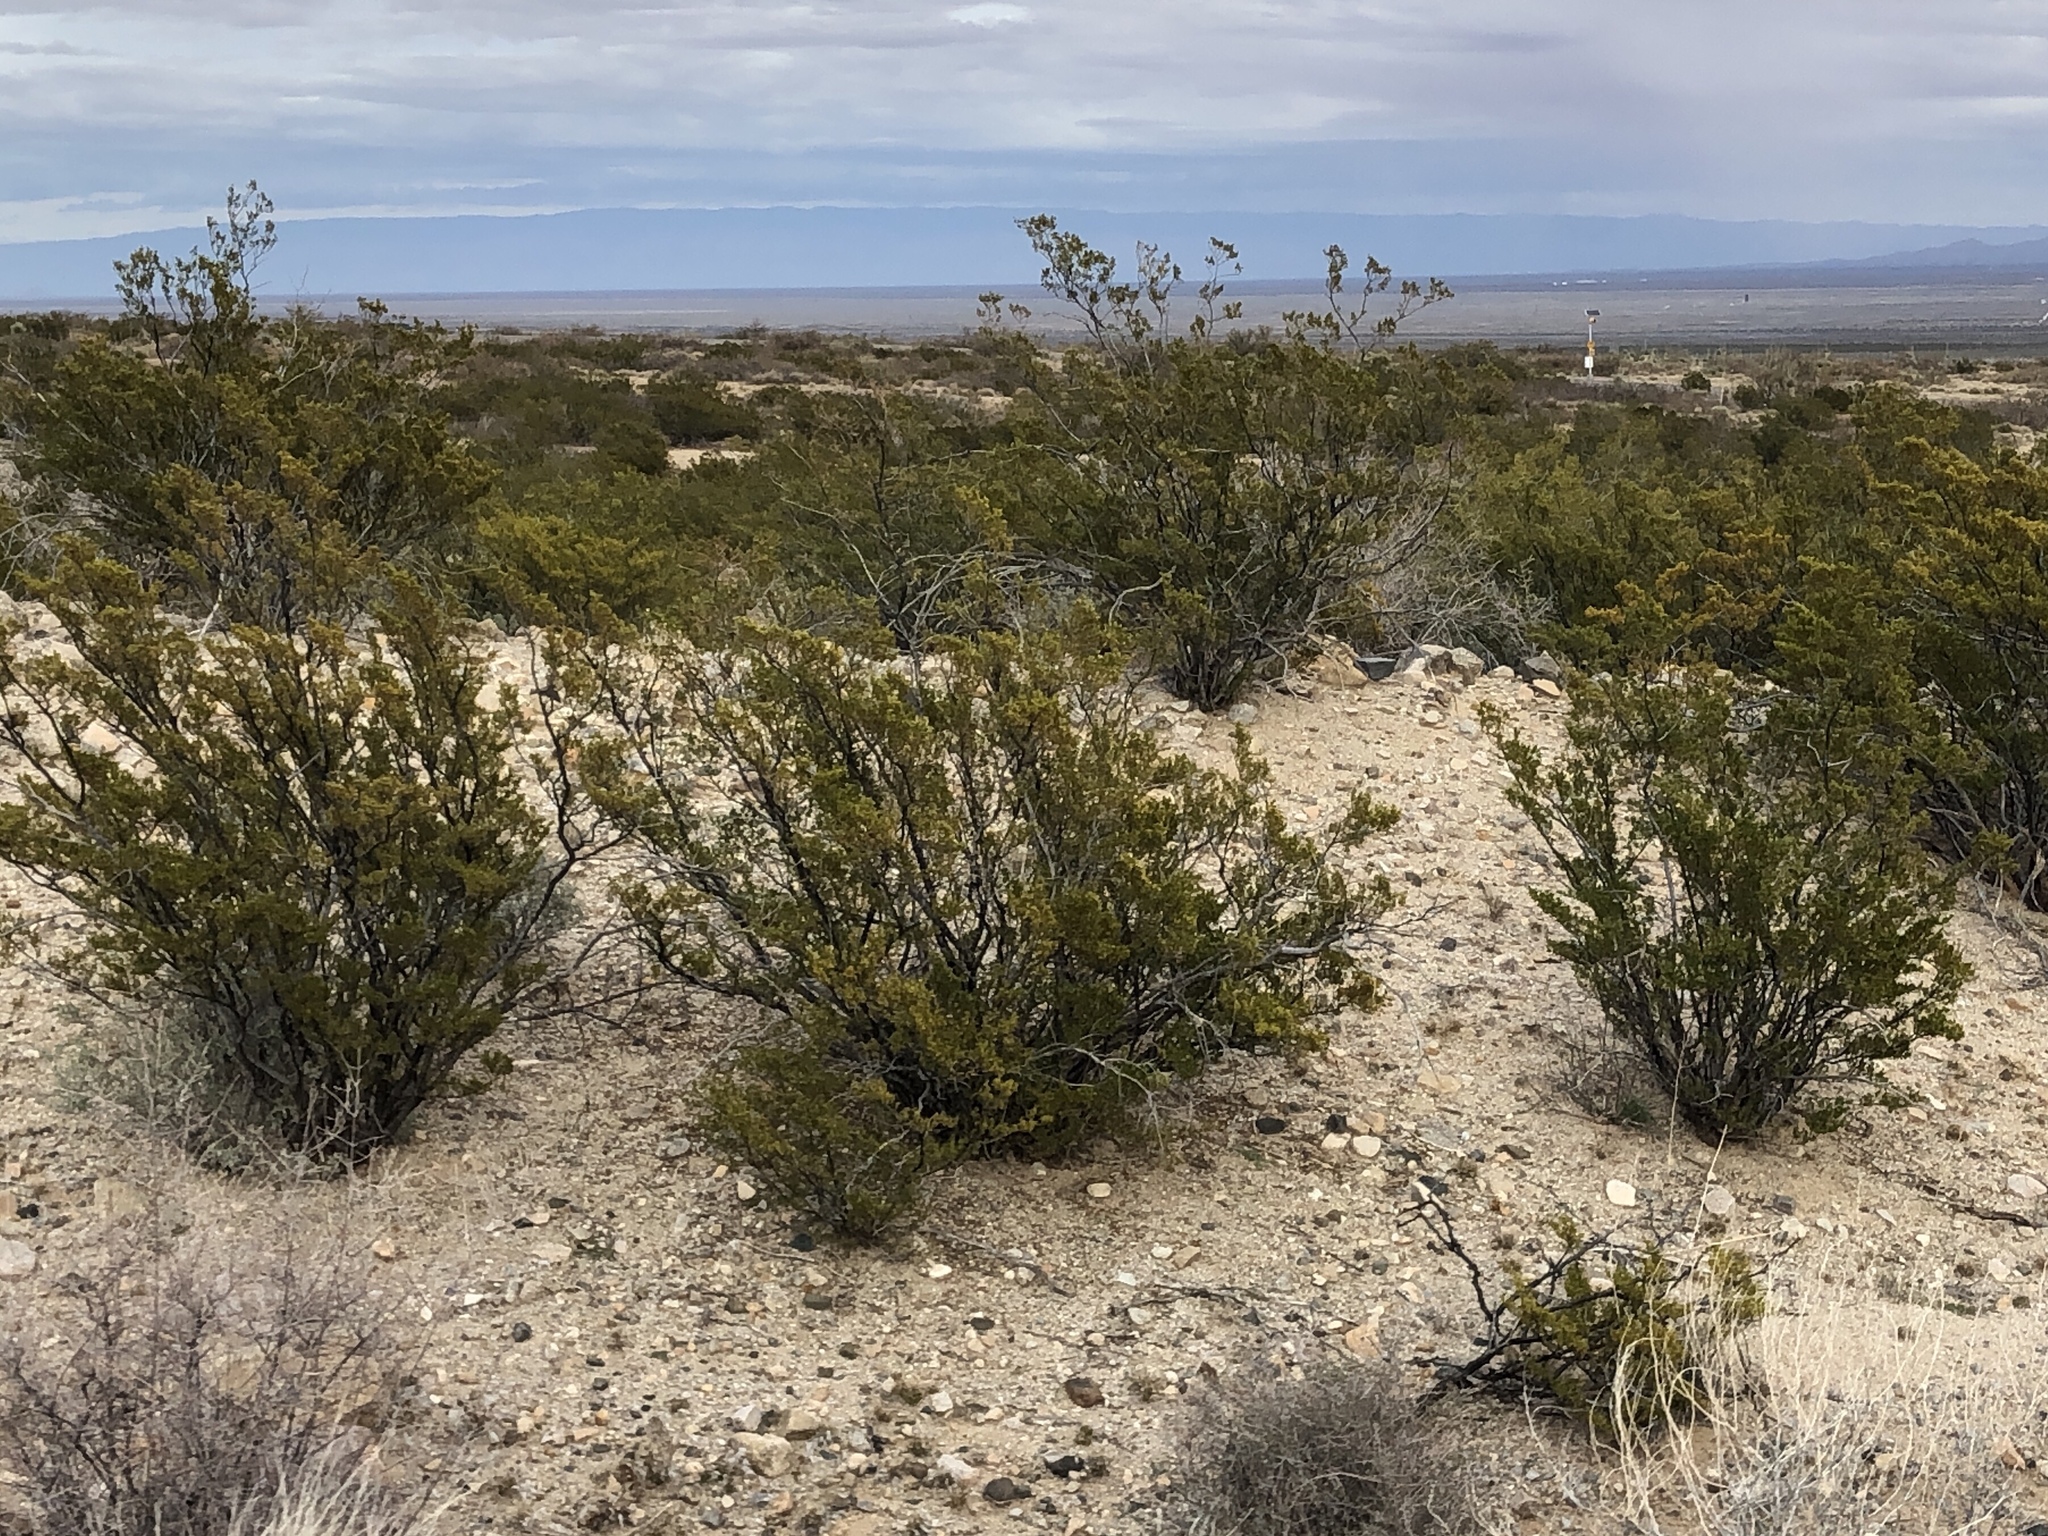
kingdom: Plantae
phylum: Tracheophyta
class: Magnoliopsida
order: Zygophyllales
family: Zygophyllaceae
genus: Larrea
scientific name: Larrea tridentata
